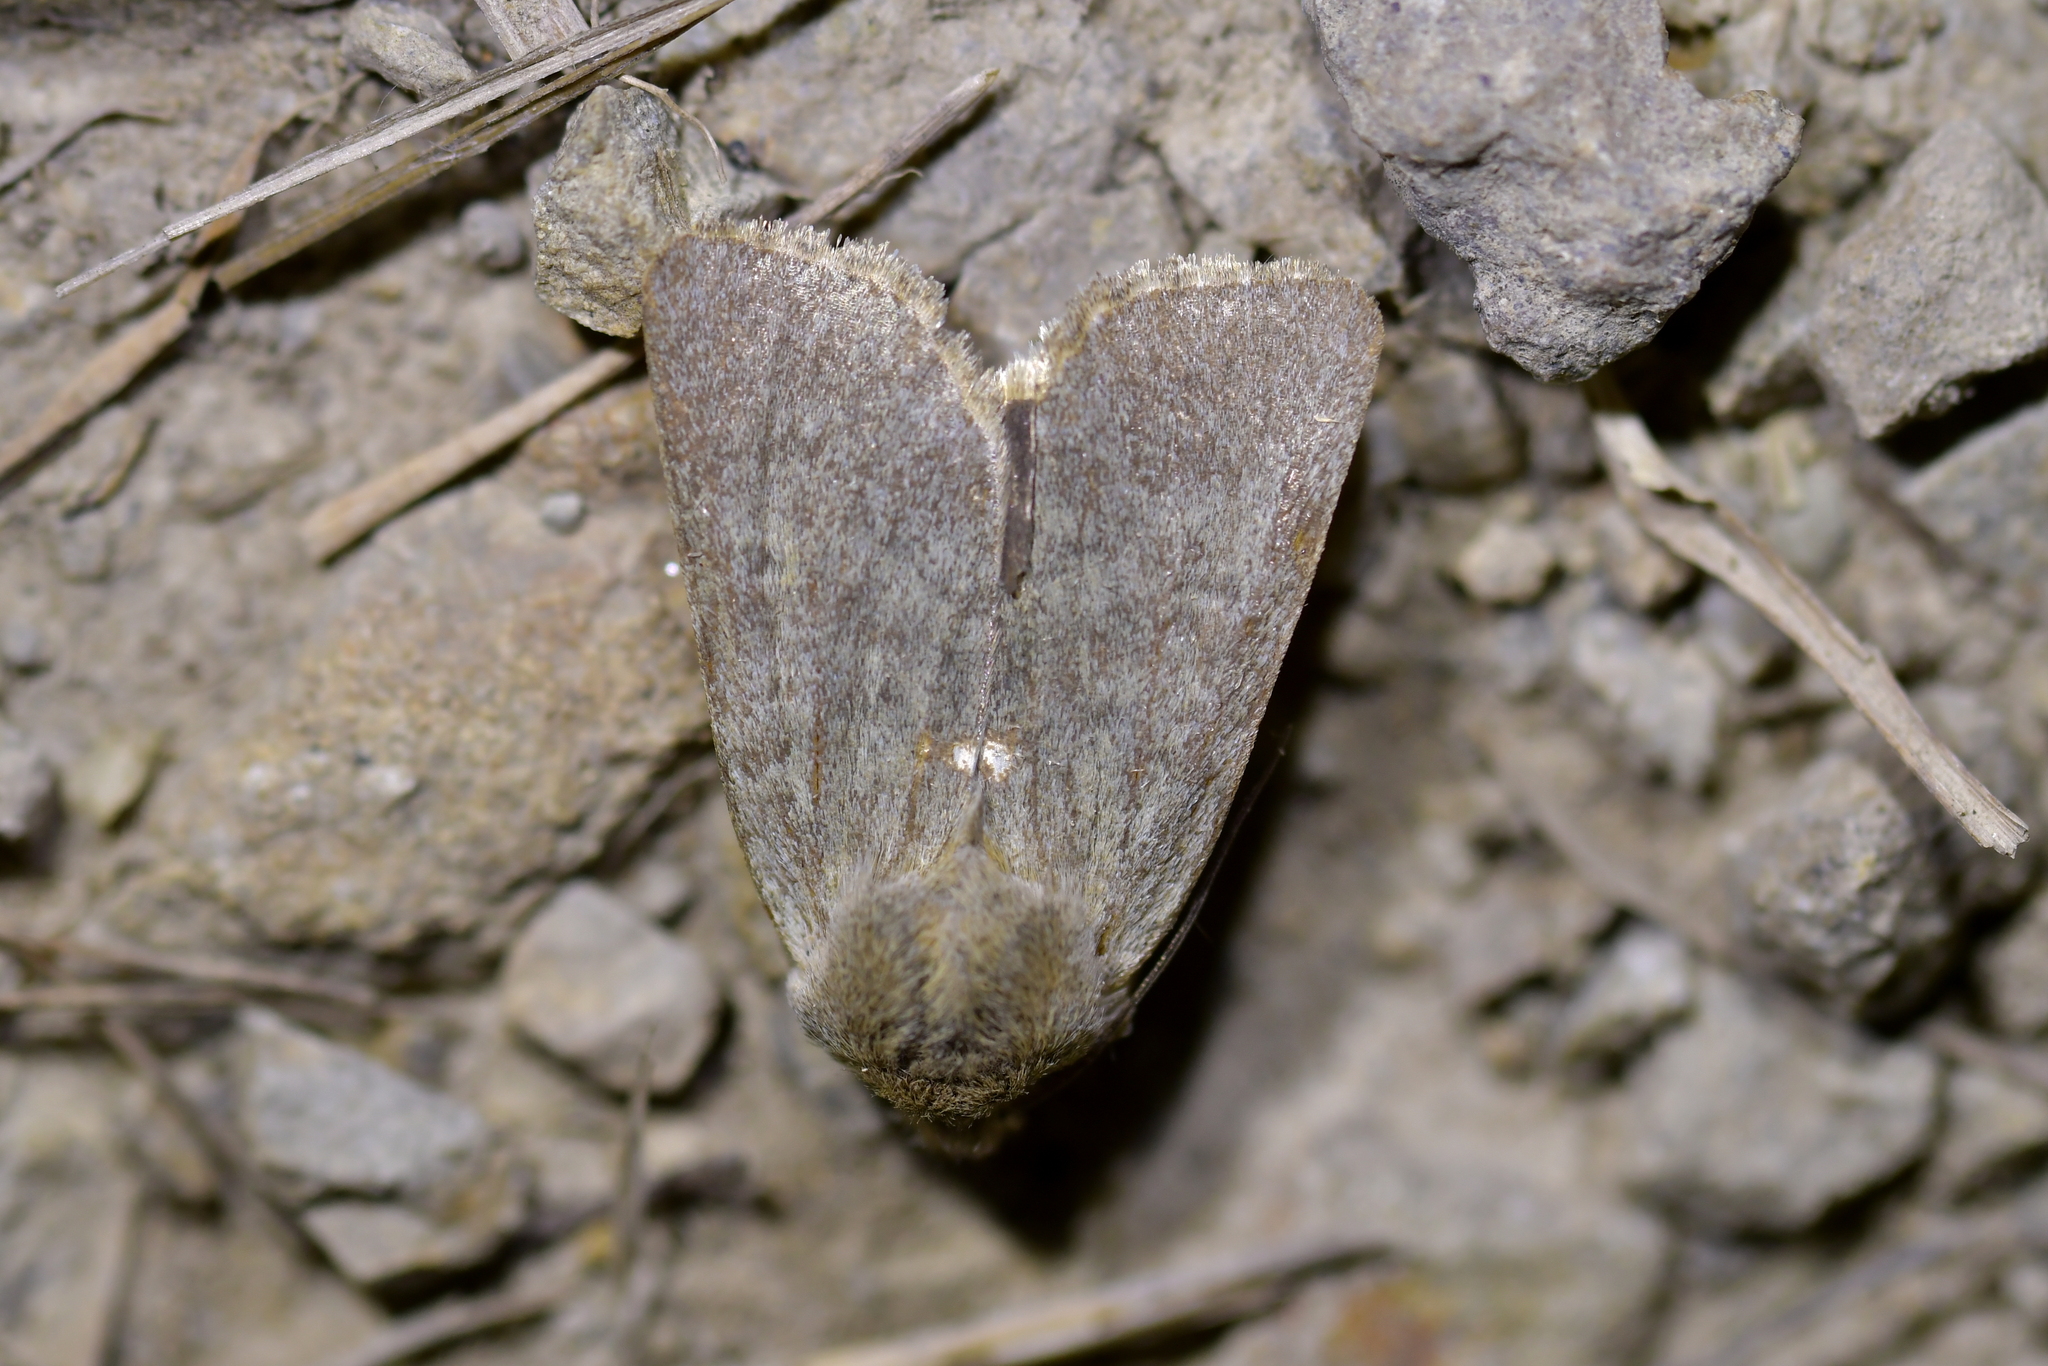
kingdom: Animalia
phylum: Arthropoda
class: Insecta
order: Lepidoptera
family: Noctuidae
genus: Physetica
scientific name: Physetica caerulea
